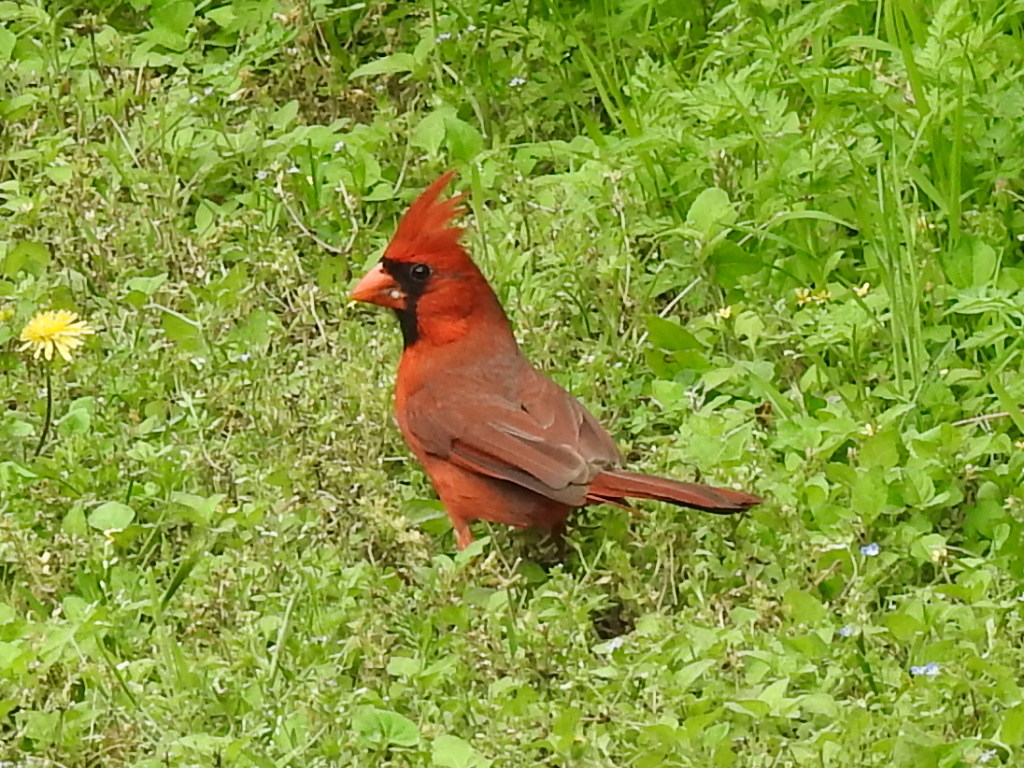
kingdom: Animalia
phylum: Chordata
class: Aves
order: Passeriformes
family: Cardinalidae
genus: Cardinalis
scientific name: Cardinalis cardinalis
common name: Northern cardinal
